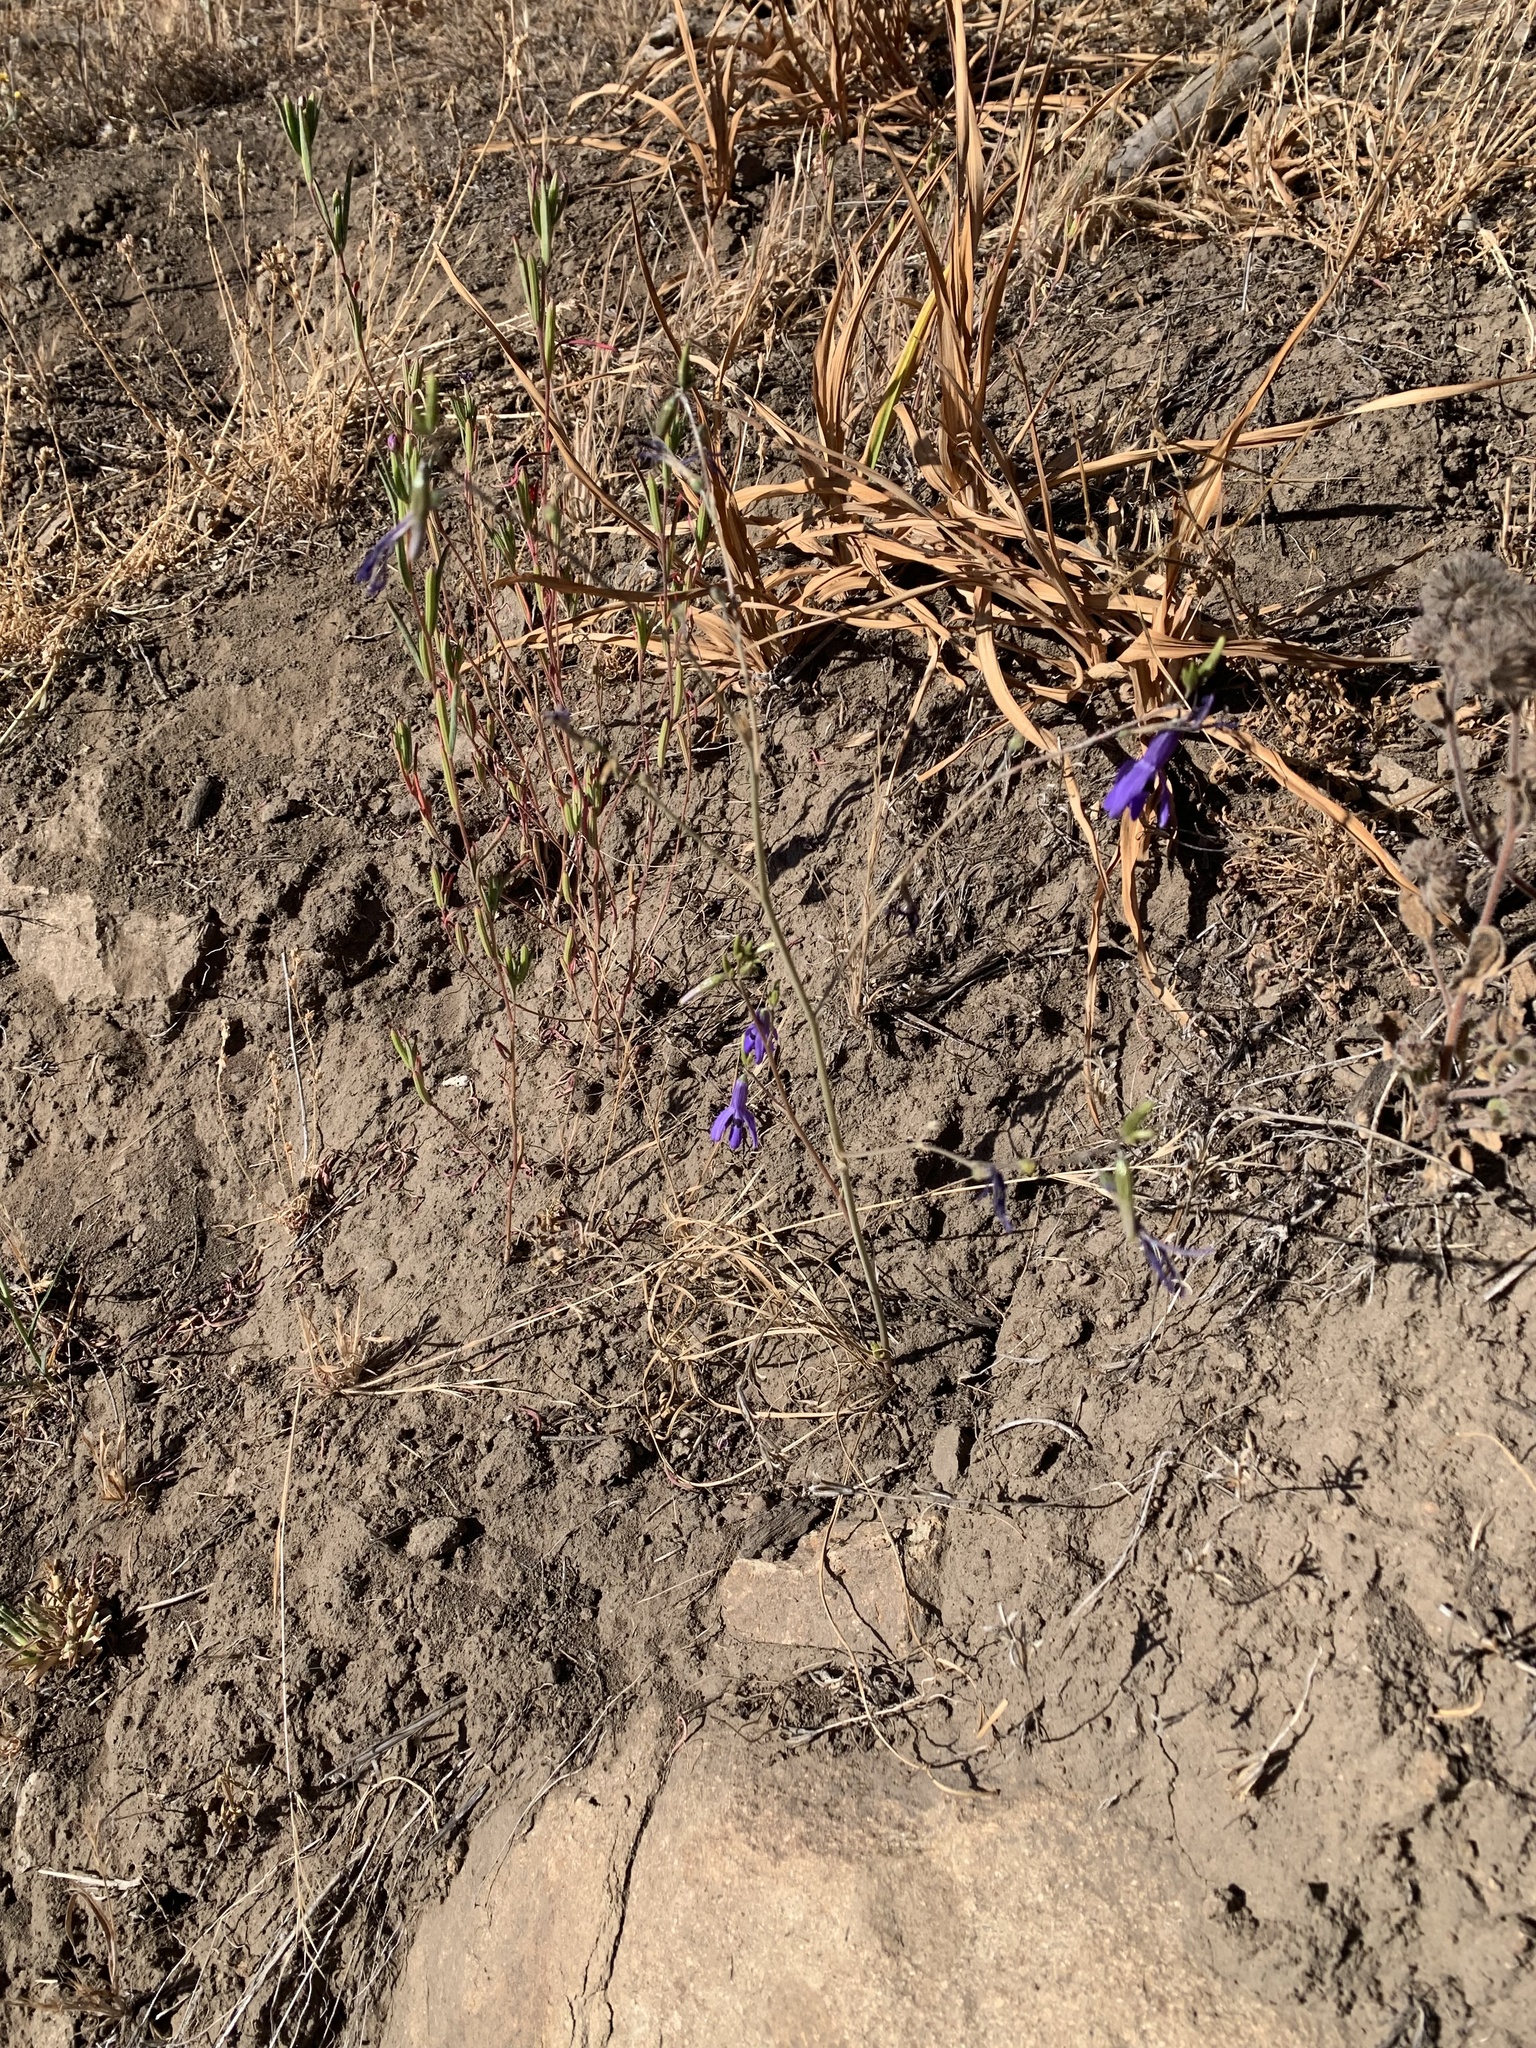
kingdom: Plantae
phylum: Tracheophyta
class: Liliopsida
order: Asparagales
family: Tecophilaeaceae
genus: Conanthera
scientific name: Conanthera trimaculata
